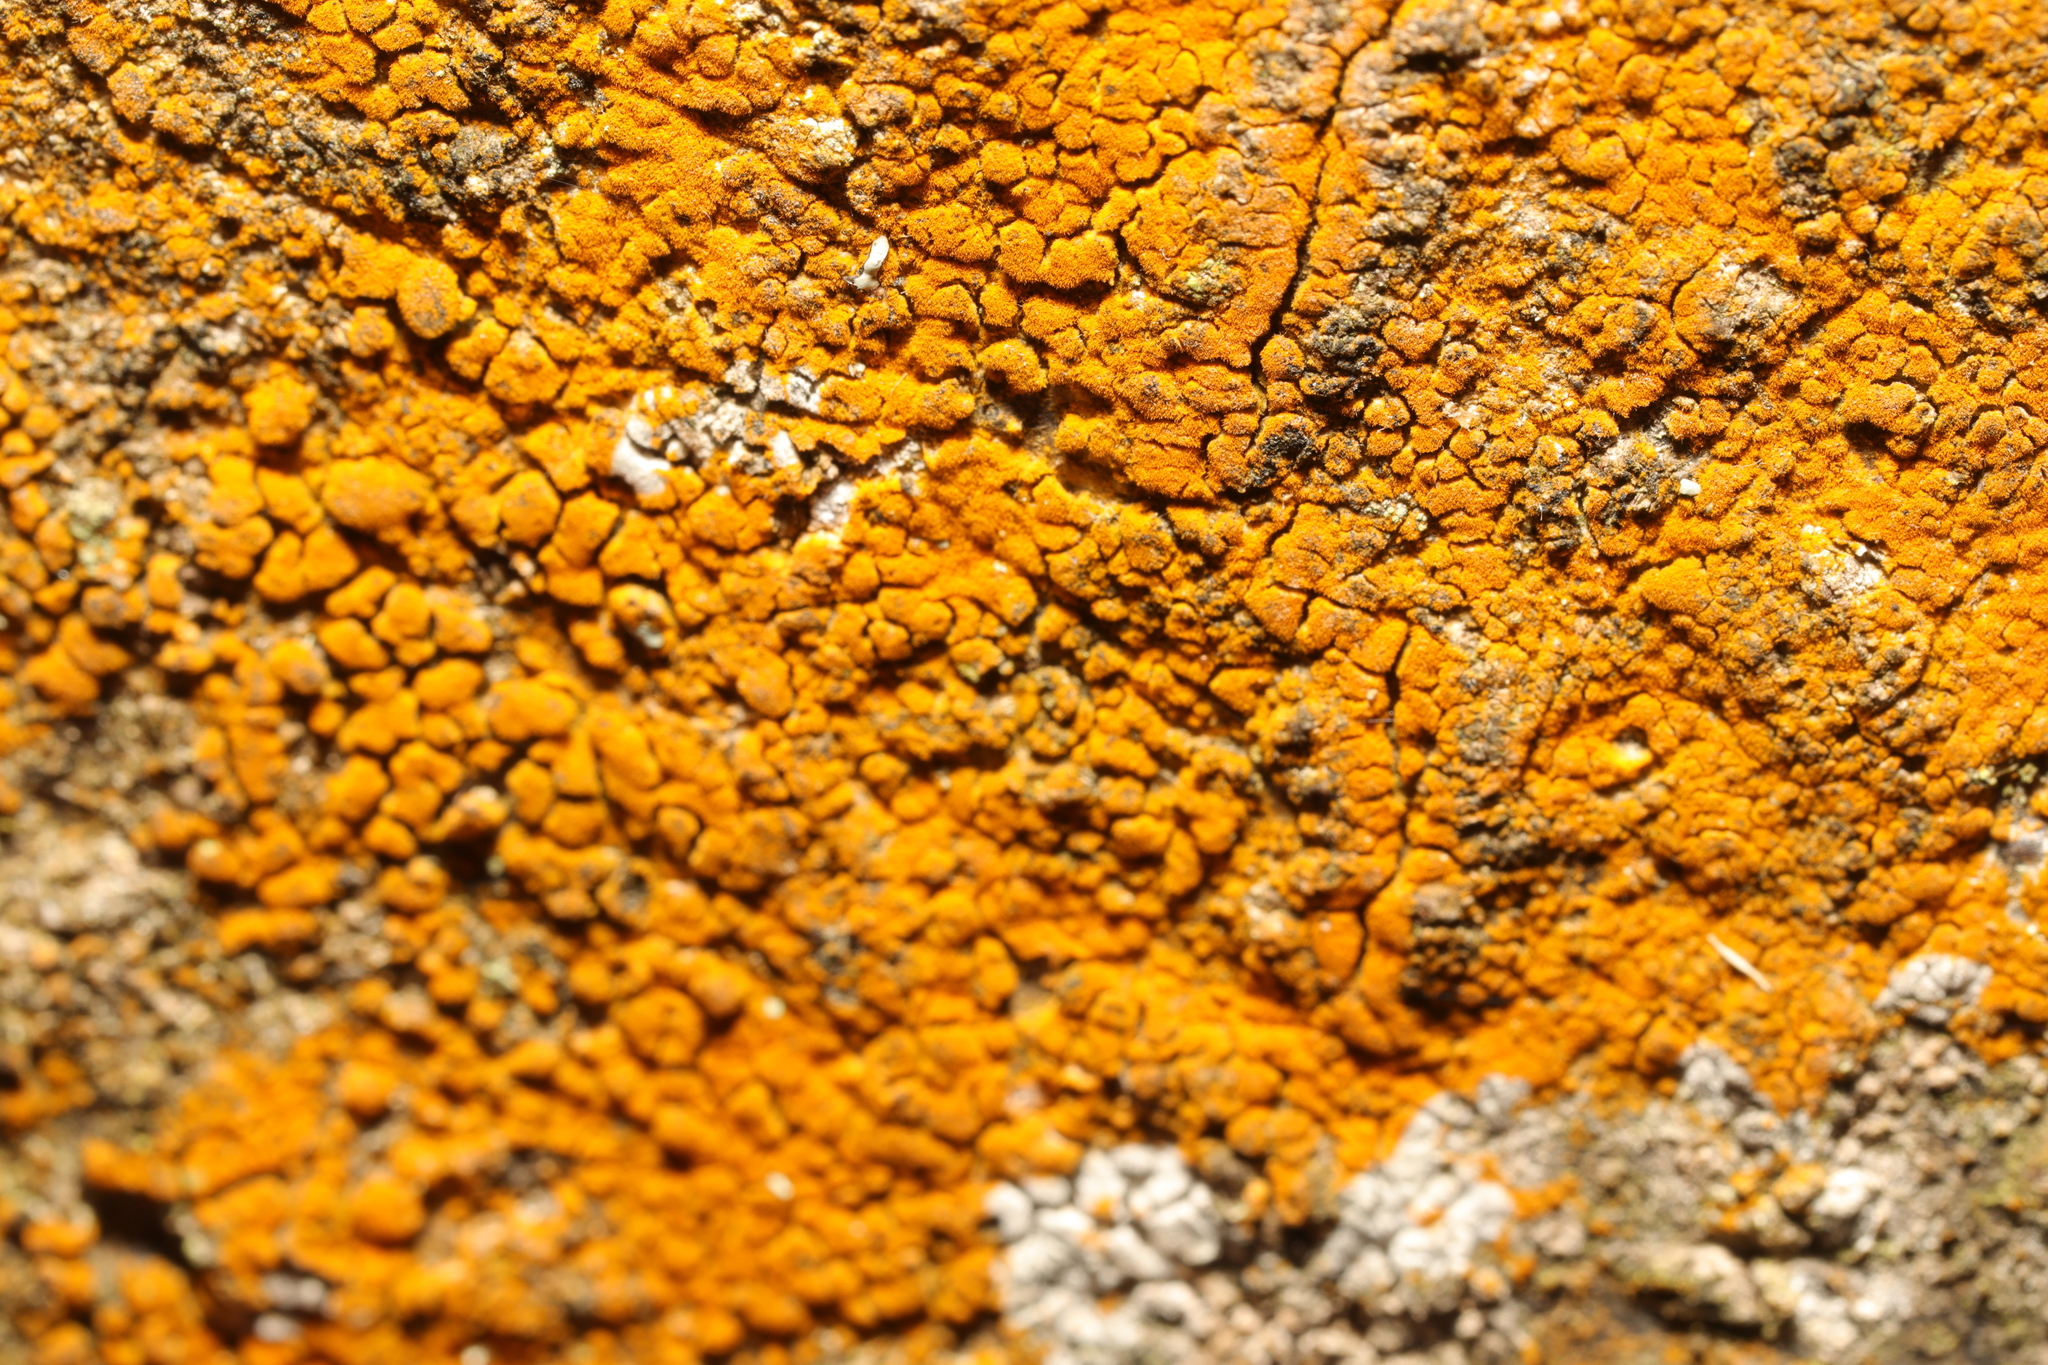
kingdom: Plantae
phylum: Chlorophyta
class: Ulvophyceae
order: Trentepohliales
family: Trentepohliaceae
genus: Trentepohlia
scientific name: Trentepohlia
